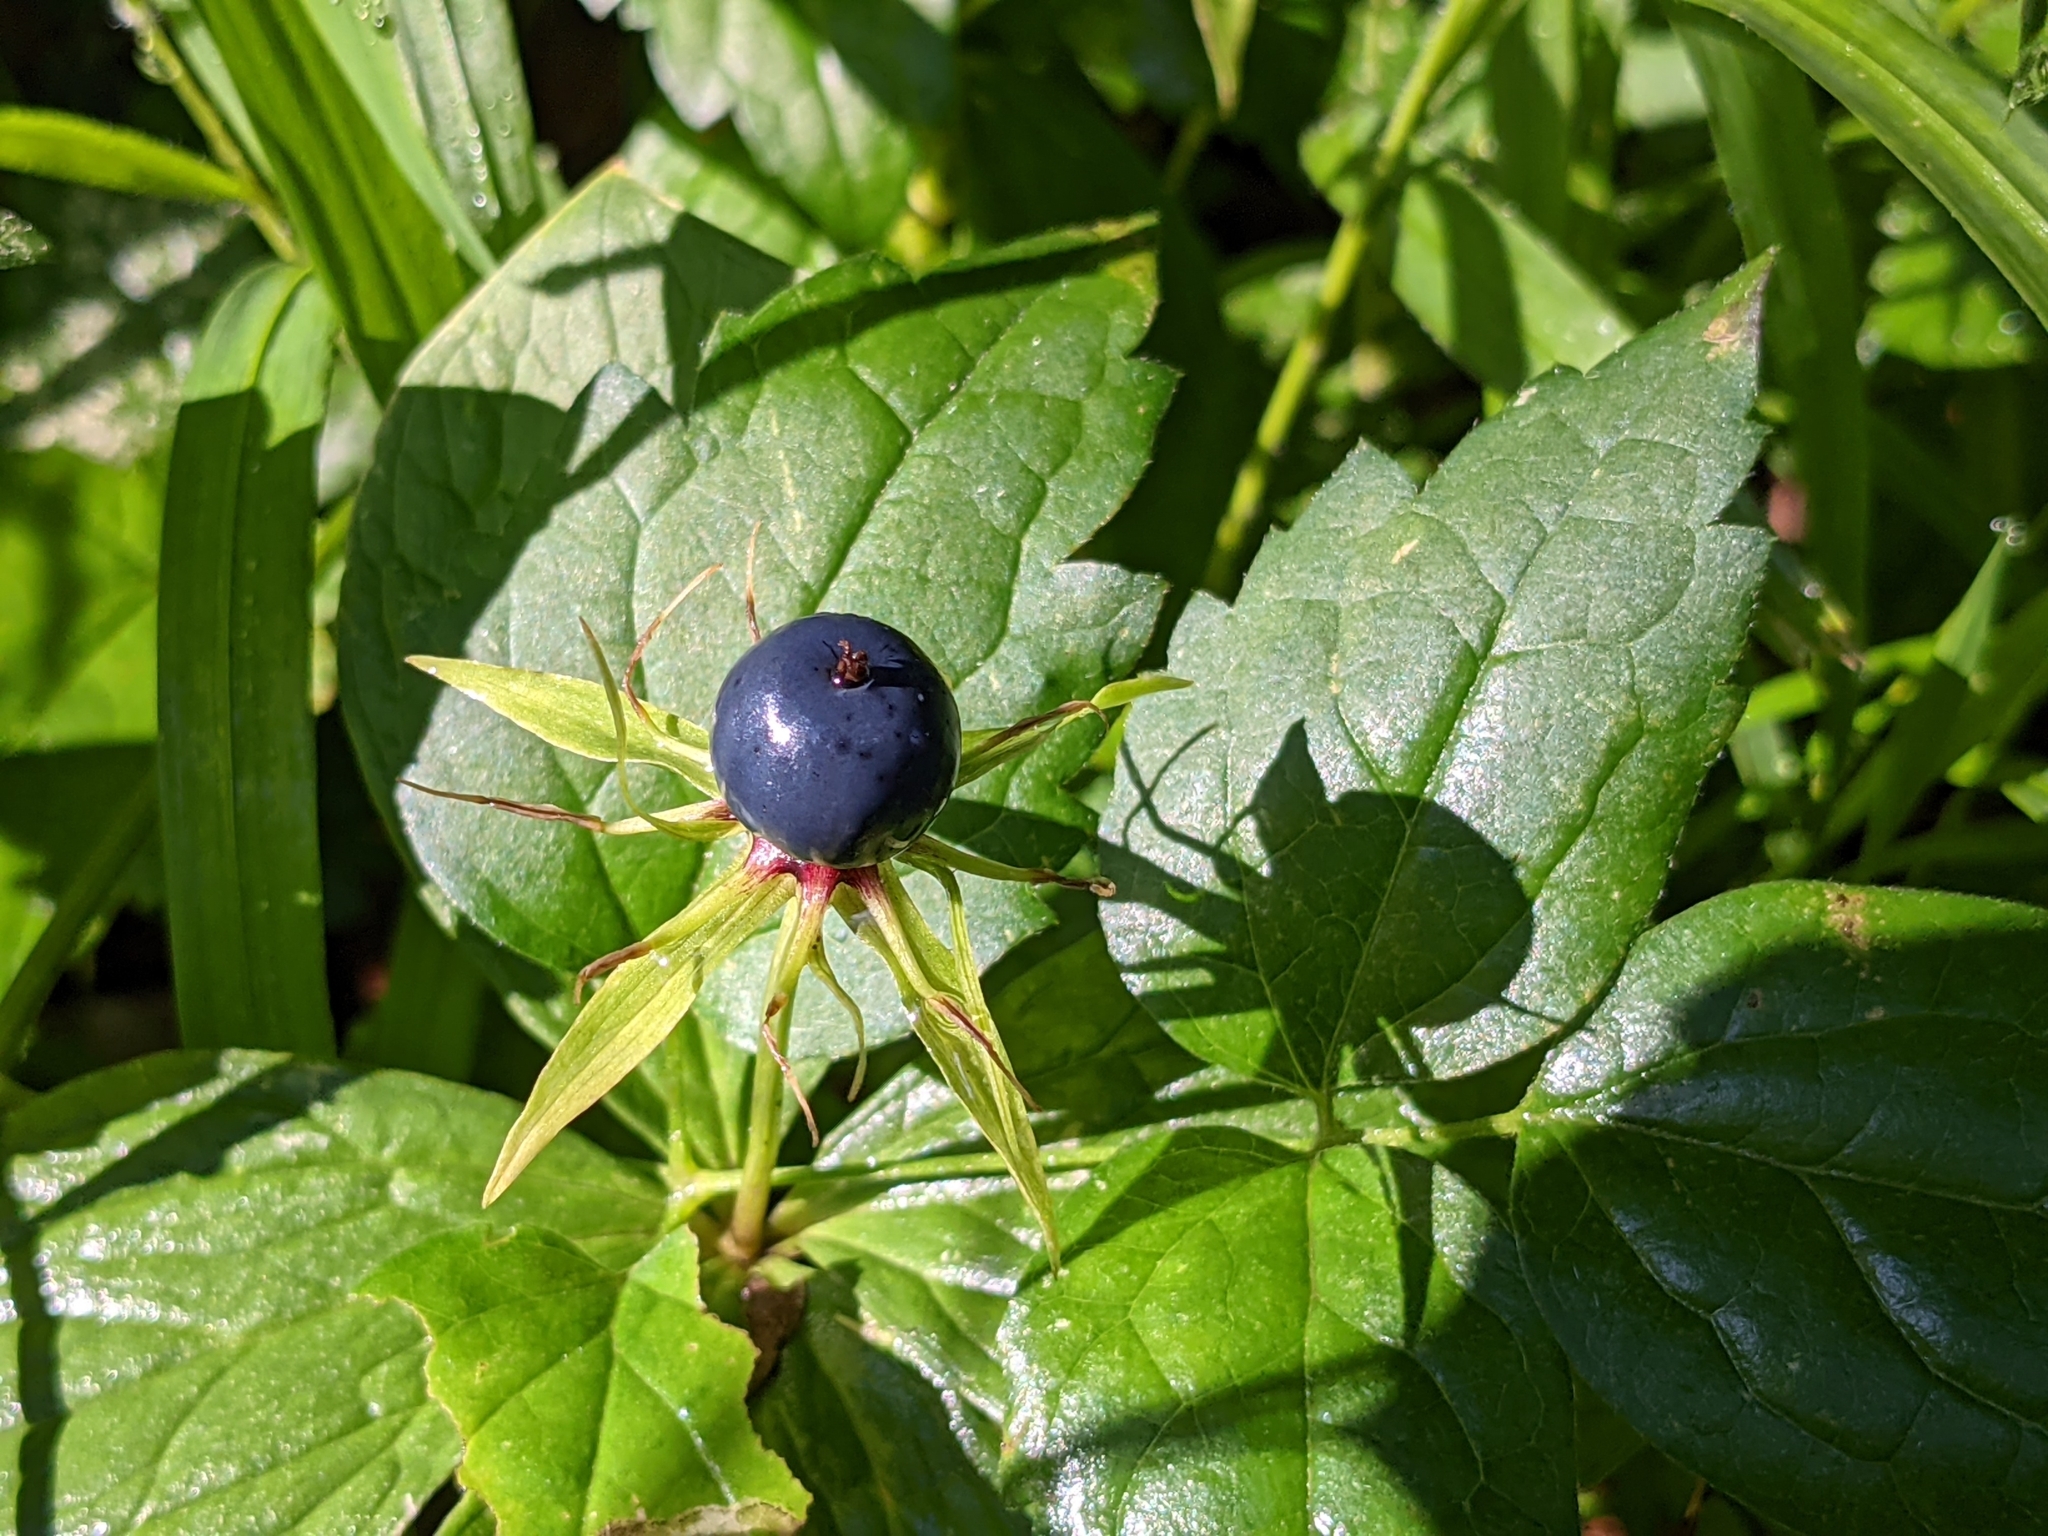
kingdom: Plantae
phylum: Tracheophyta
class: Liliopsida
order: Liliales
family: Melanthiaceae
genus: Paris
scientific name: Paris quadrifolia
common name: Herb-paris
